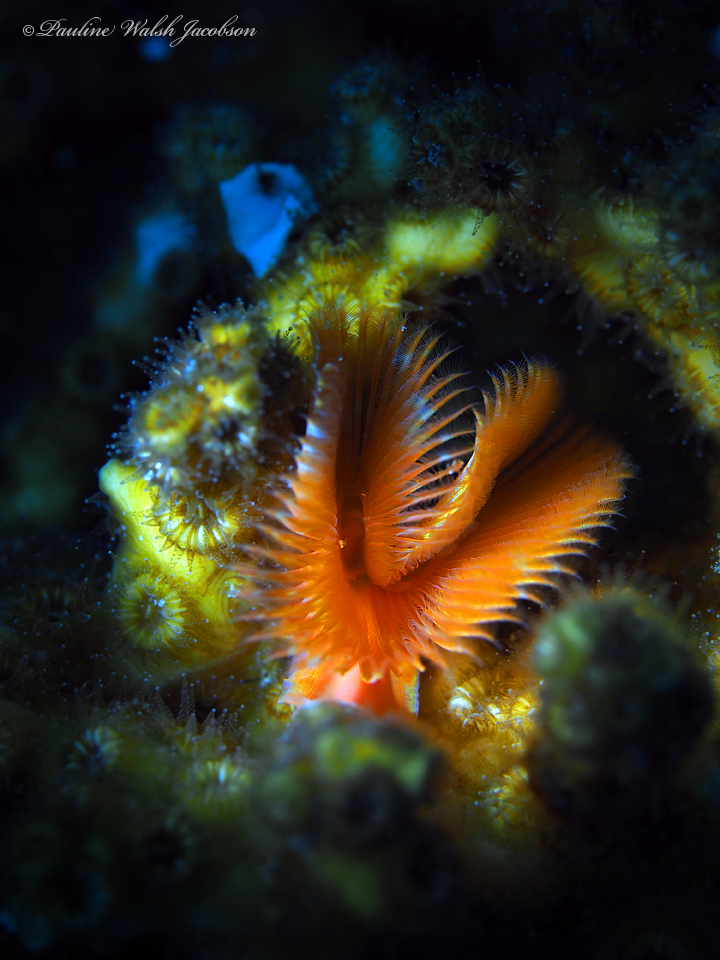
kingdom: Animalia
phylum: Annelida
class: Polychaeta
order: Sabellida
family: Serpulidae
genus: Pomatostegus
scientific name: Pomatostegus stellatus
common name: Star tubeworm
